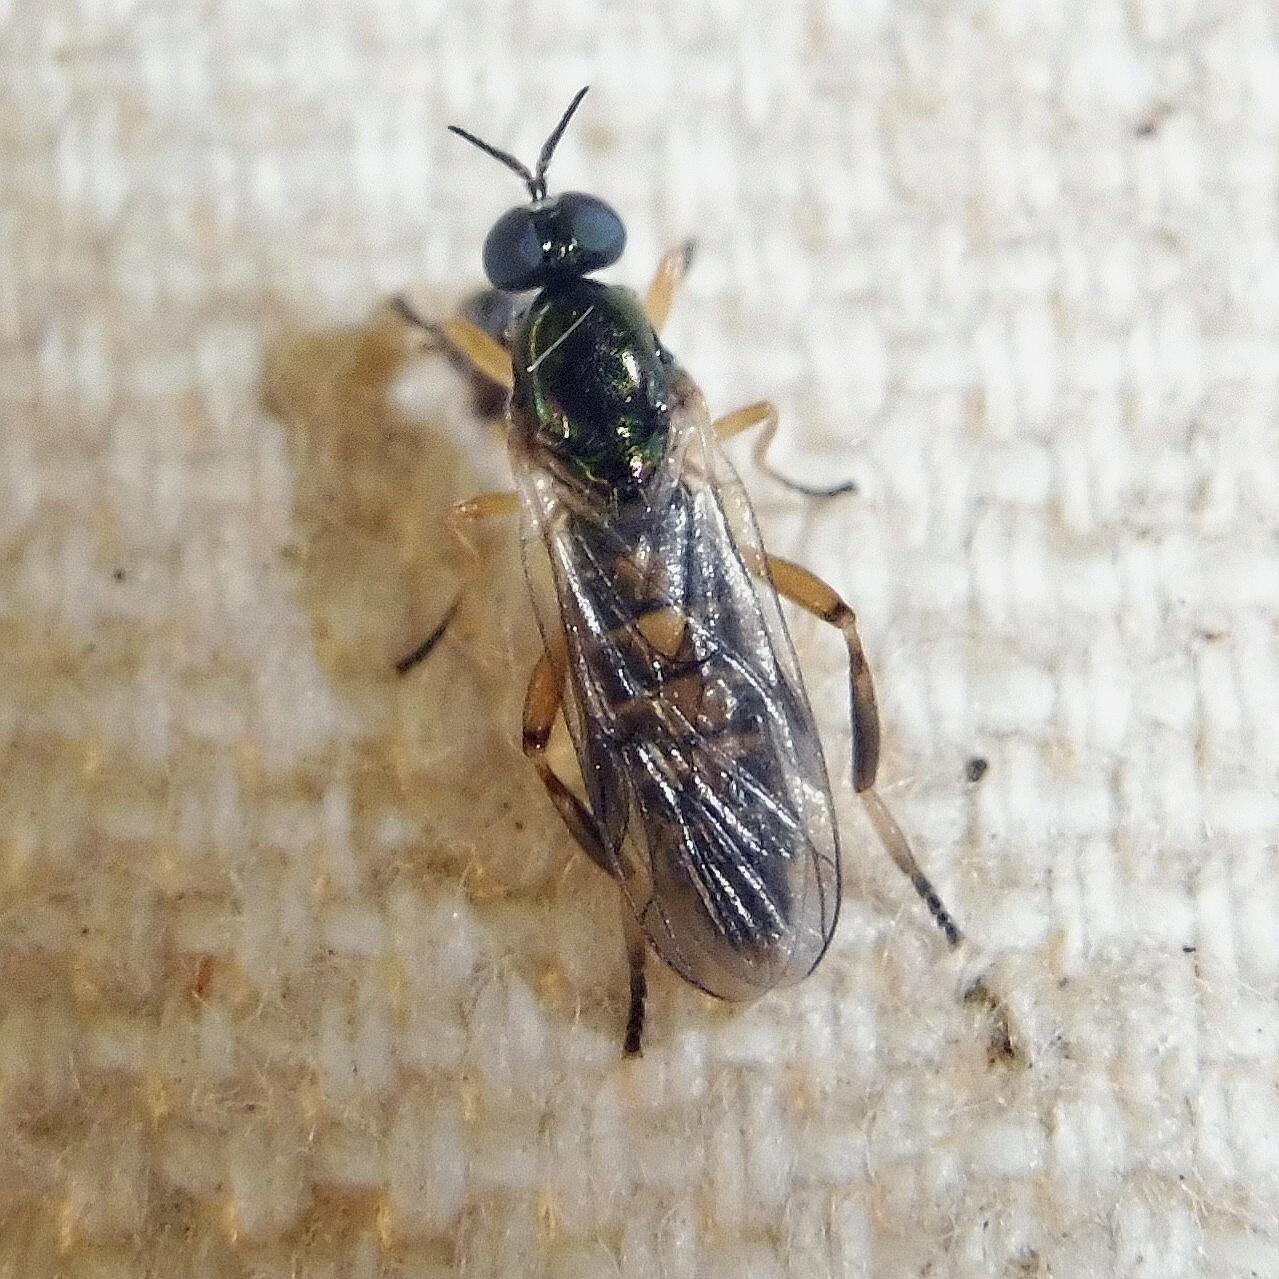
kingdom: Animalia
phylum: Arthropoda
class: Insecta
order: Diptera
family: Stratiomyidae
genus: Chorisops
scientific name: Chorisops tibialis
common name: Dull four-spined legionnaire
